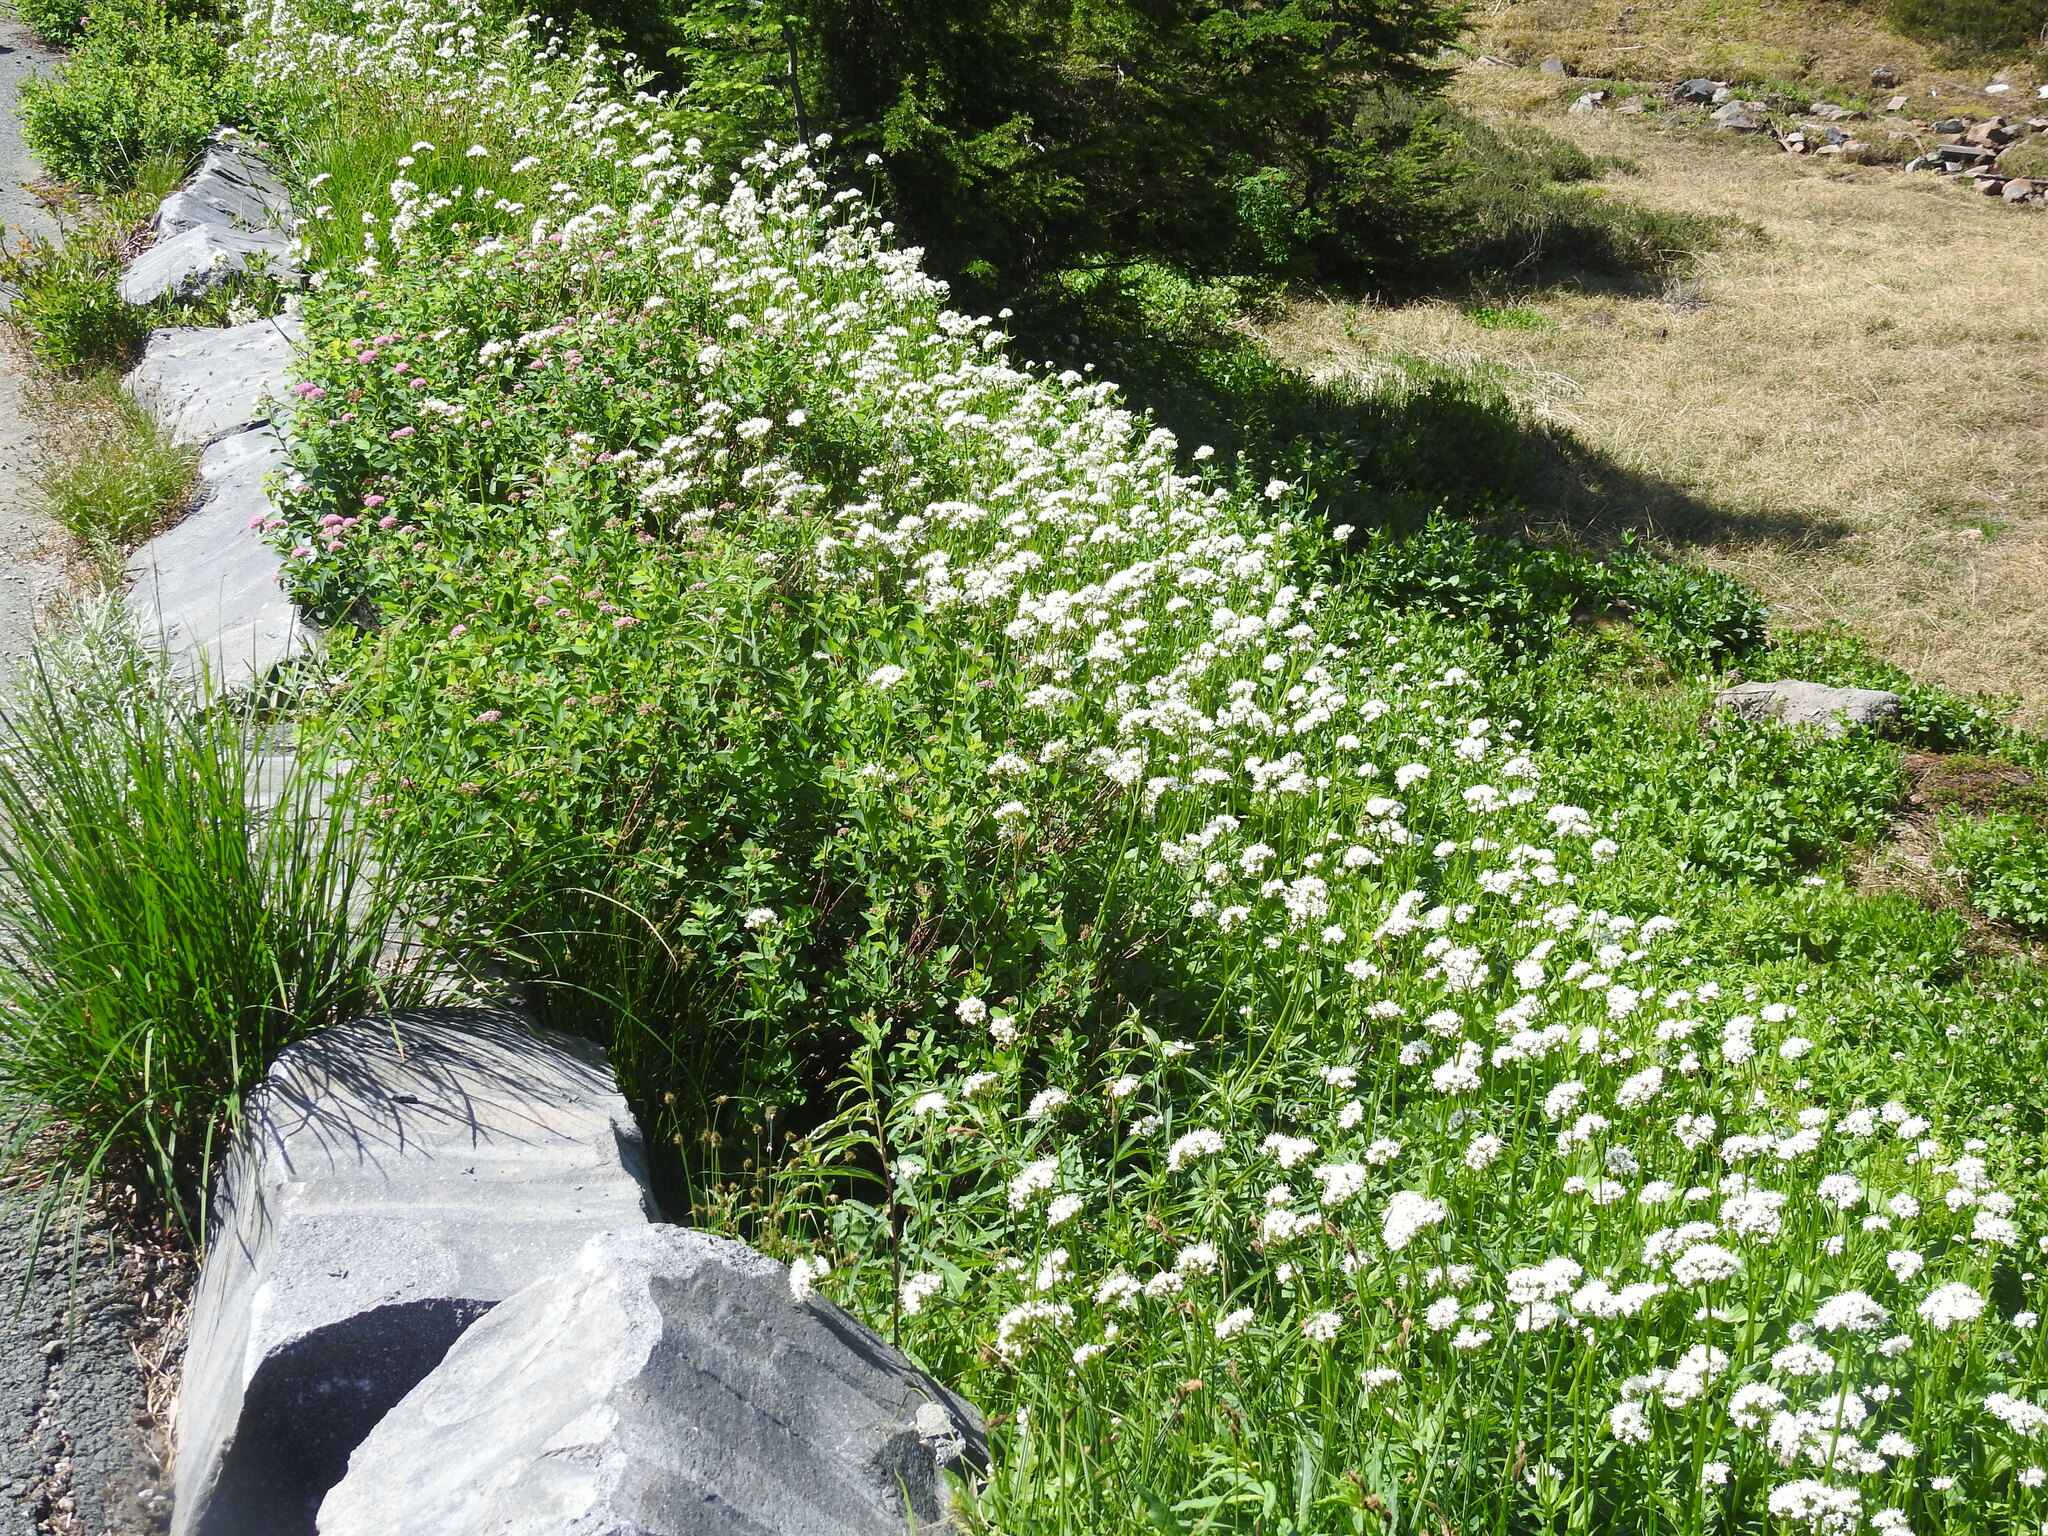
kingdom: Plantae
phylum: Tracheophyta
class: Magnoliopsida
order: Dipsacales
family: Caprifoliaceae
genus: Valeriana
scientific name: Valeriana sitchensis
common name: Pacific valerian
